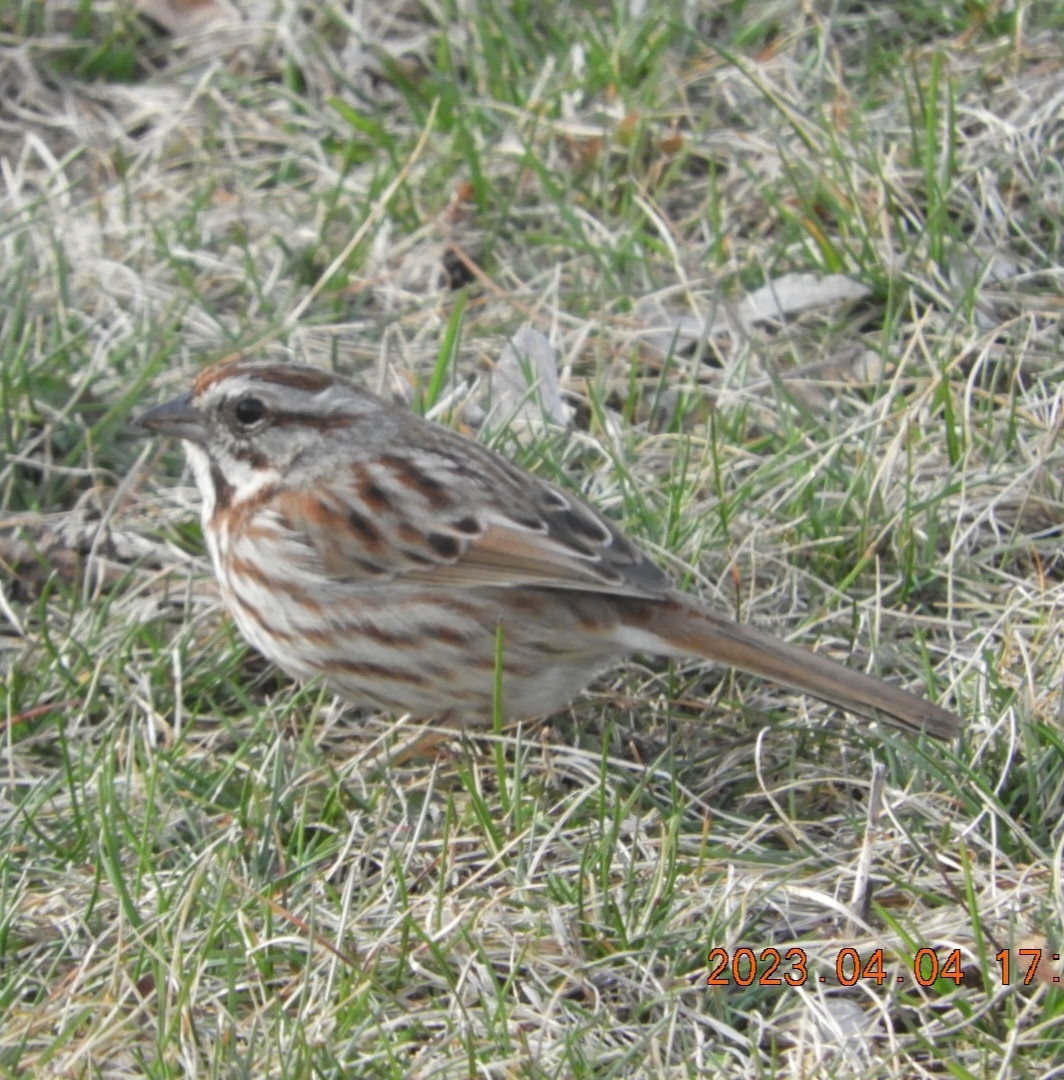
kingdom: Animalia
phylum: Chordata
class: Aves
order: Passeriformes
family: Passerellidae
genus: Melospiza
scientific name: Melospiza melodia
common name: Song sparrow
